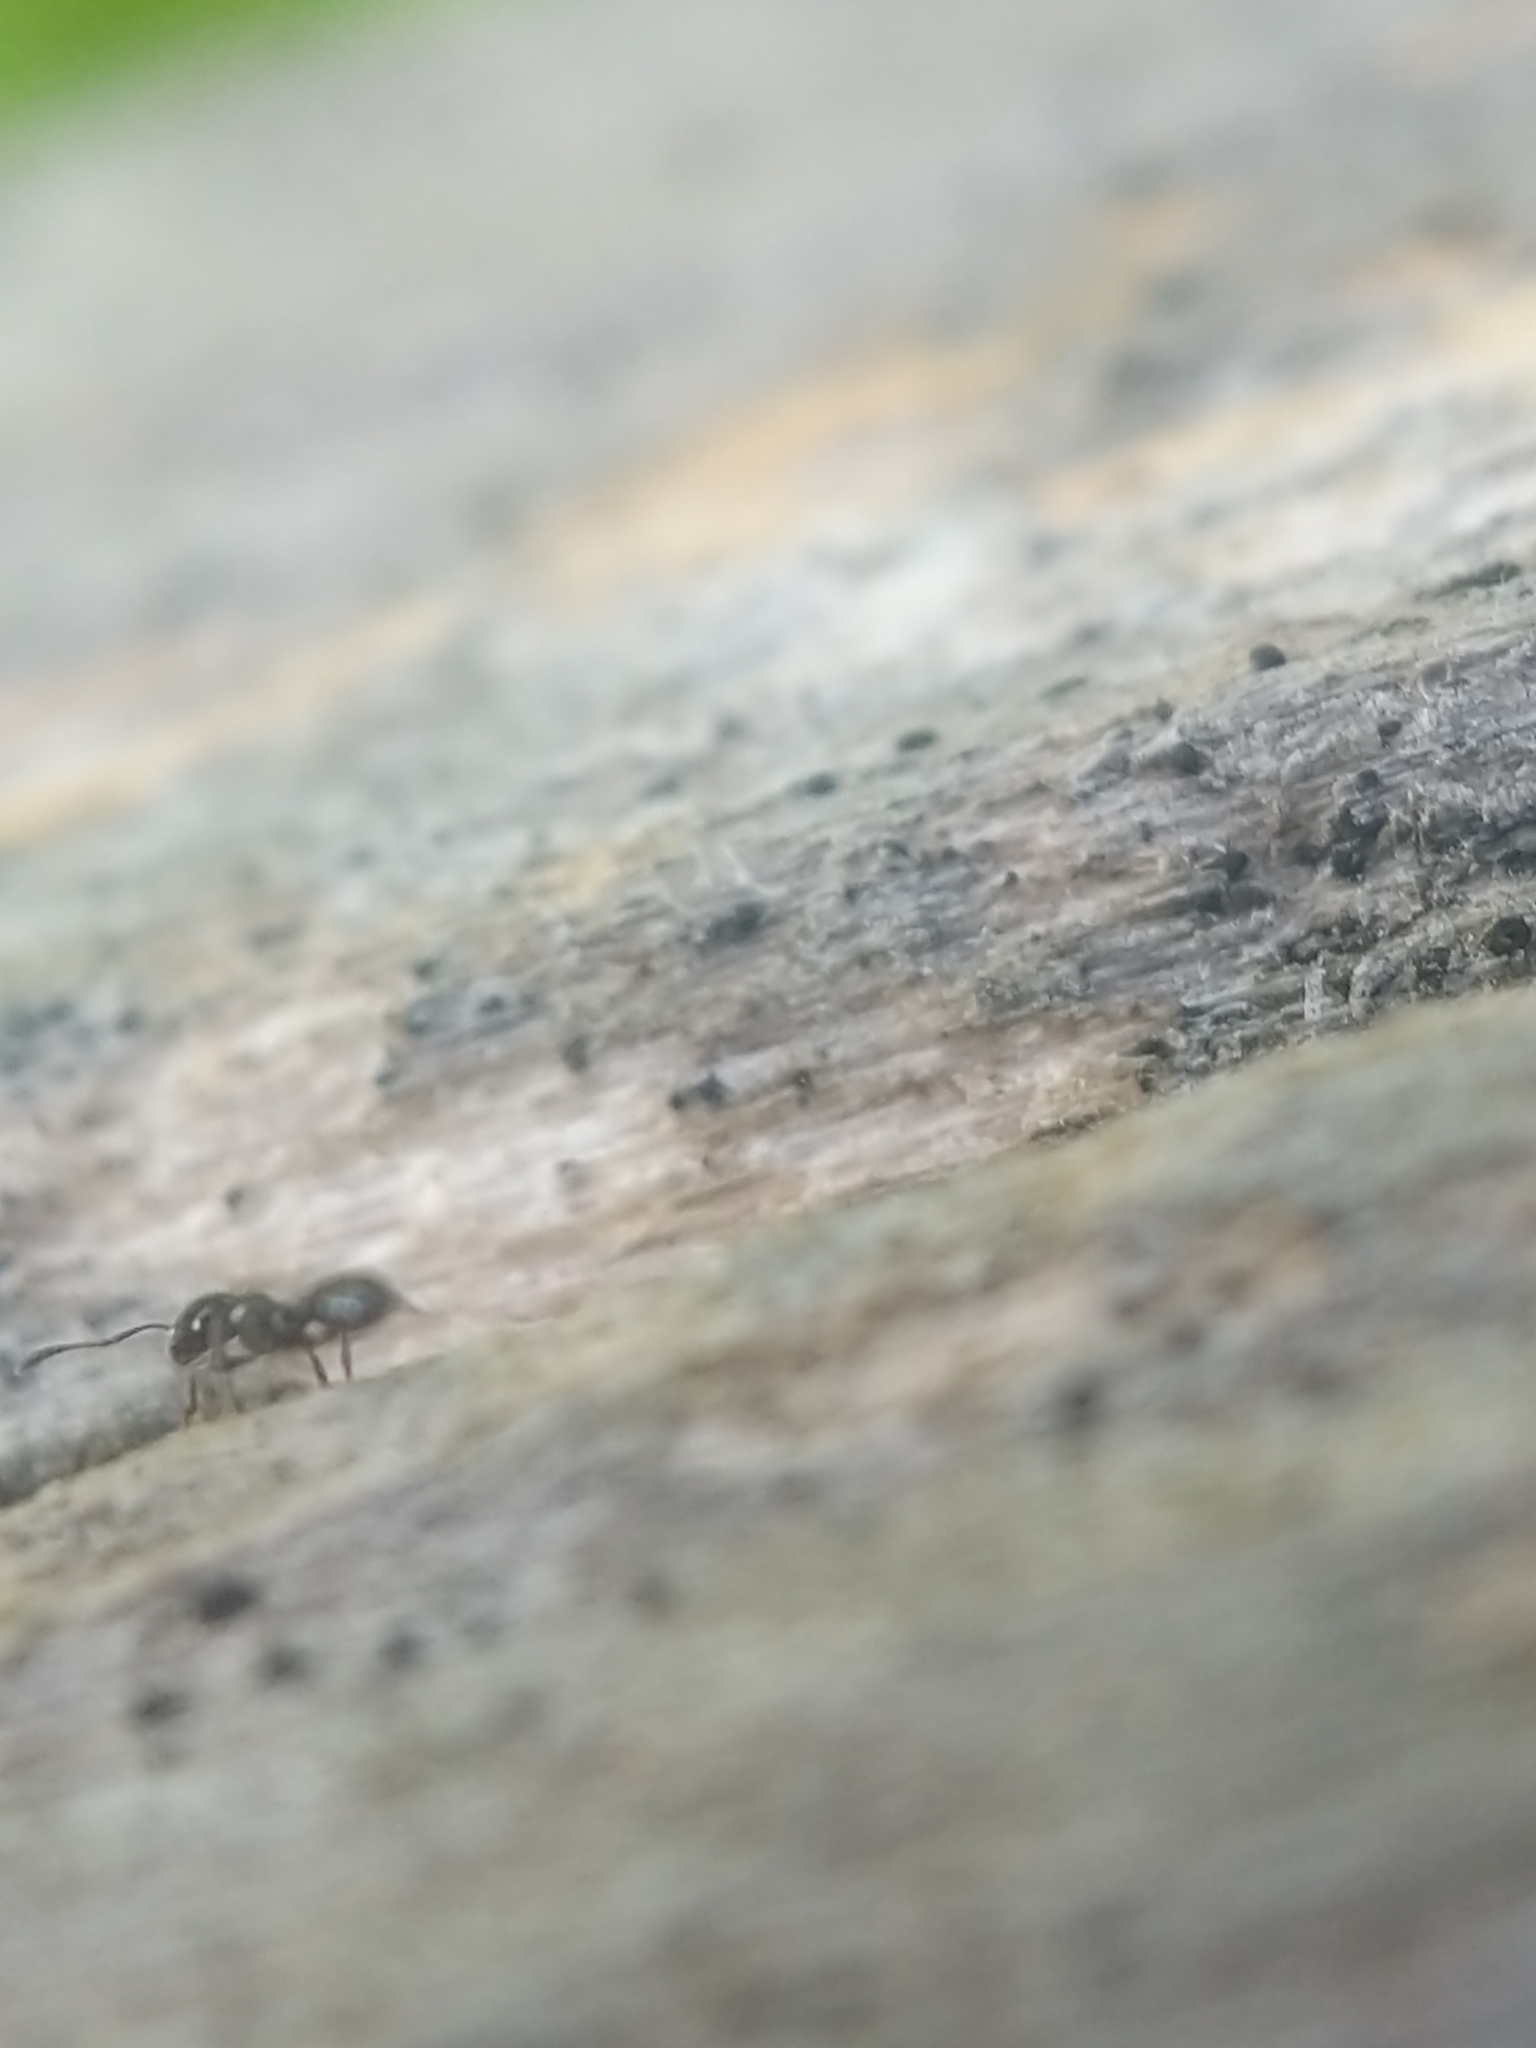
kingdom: Animalia
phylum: Arthropoda
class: Insecta
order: Hymenoptera
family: Formicidae
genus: Monomorium
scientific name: Monomorium
